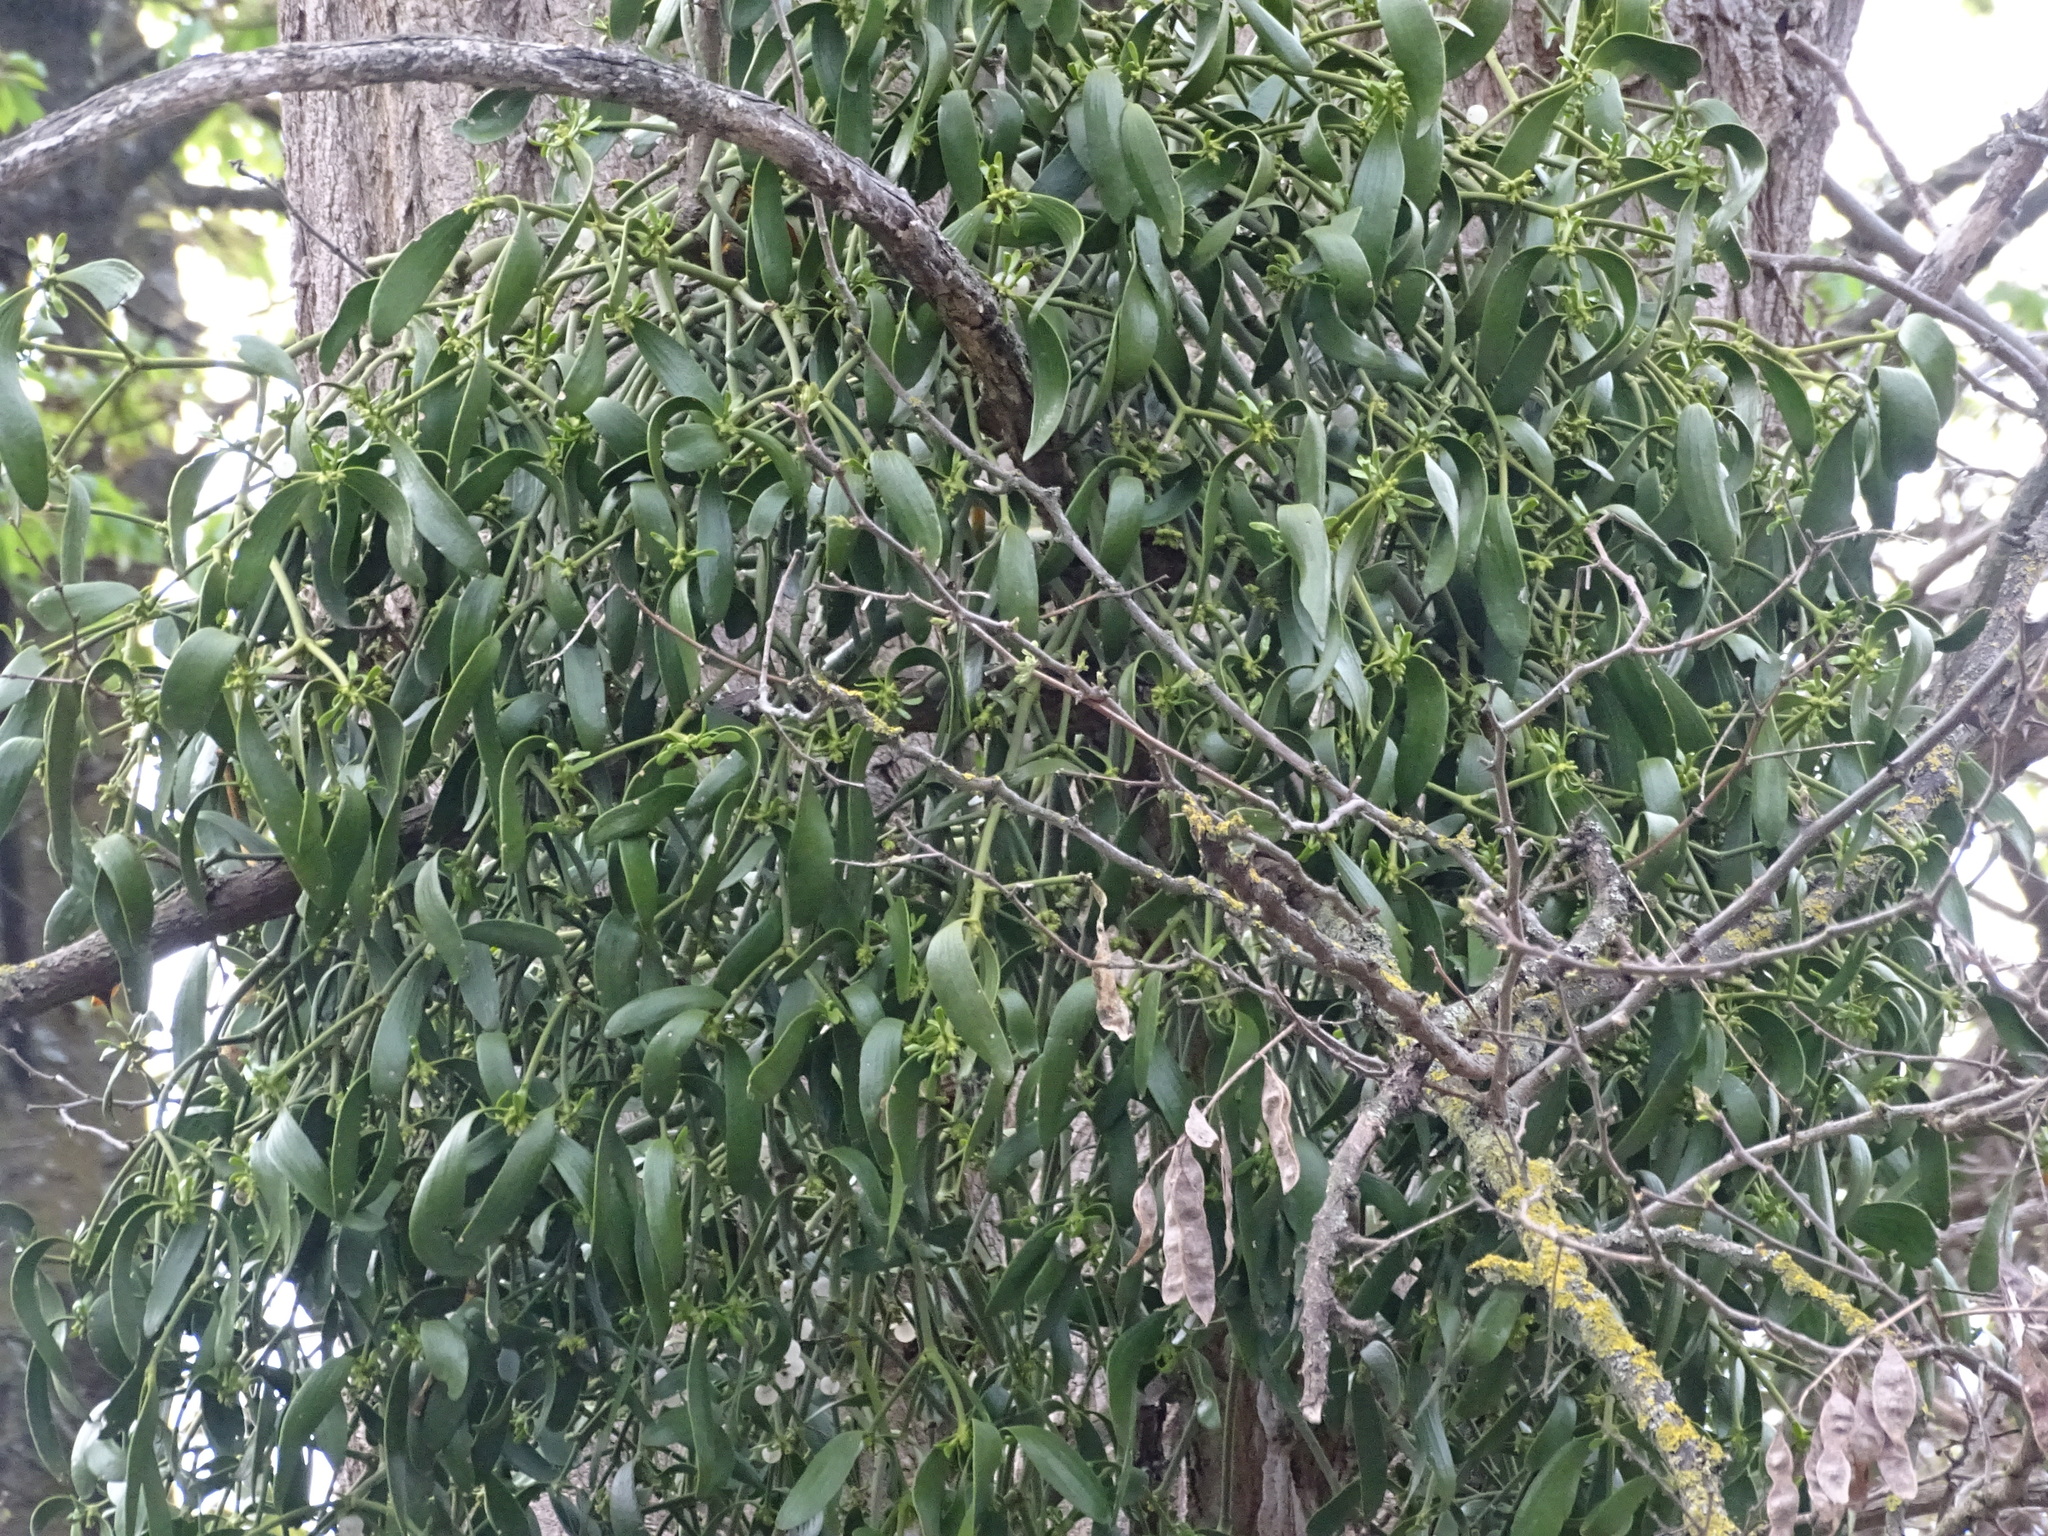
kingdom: Plantae
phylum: Tracheophyta
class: Magnoliopsida
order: Santalales
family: Viscaceae
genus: Viscum
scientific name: Viscum album
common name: Mistletoe
